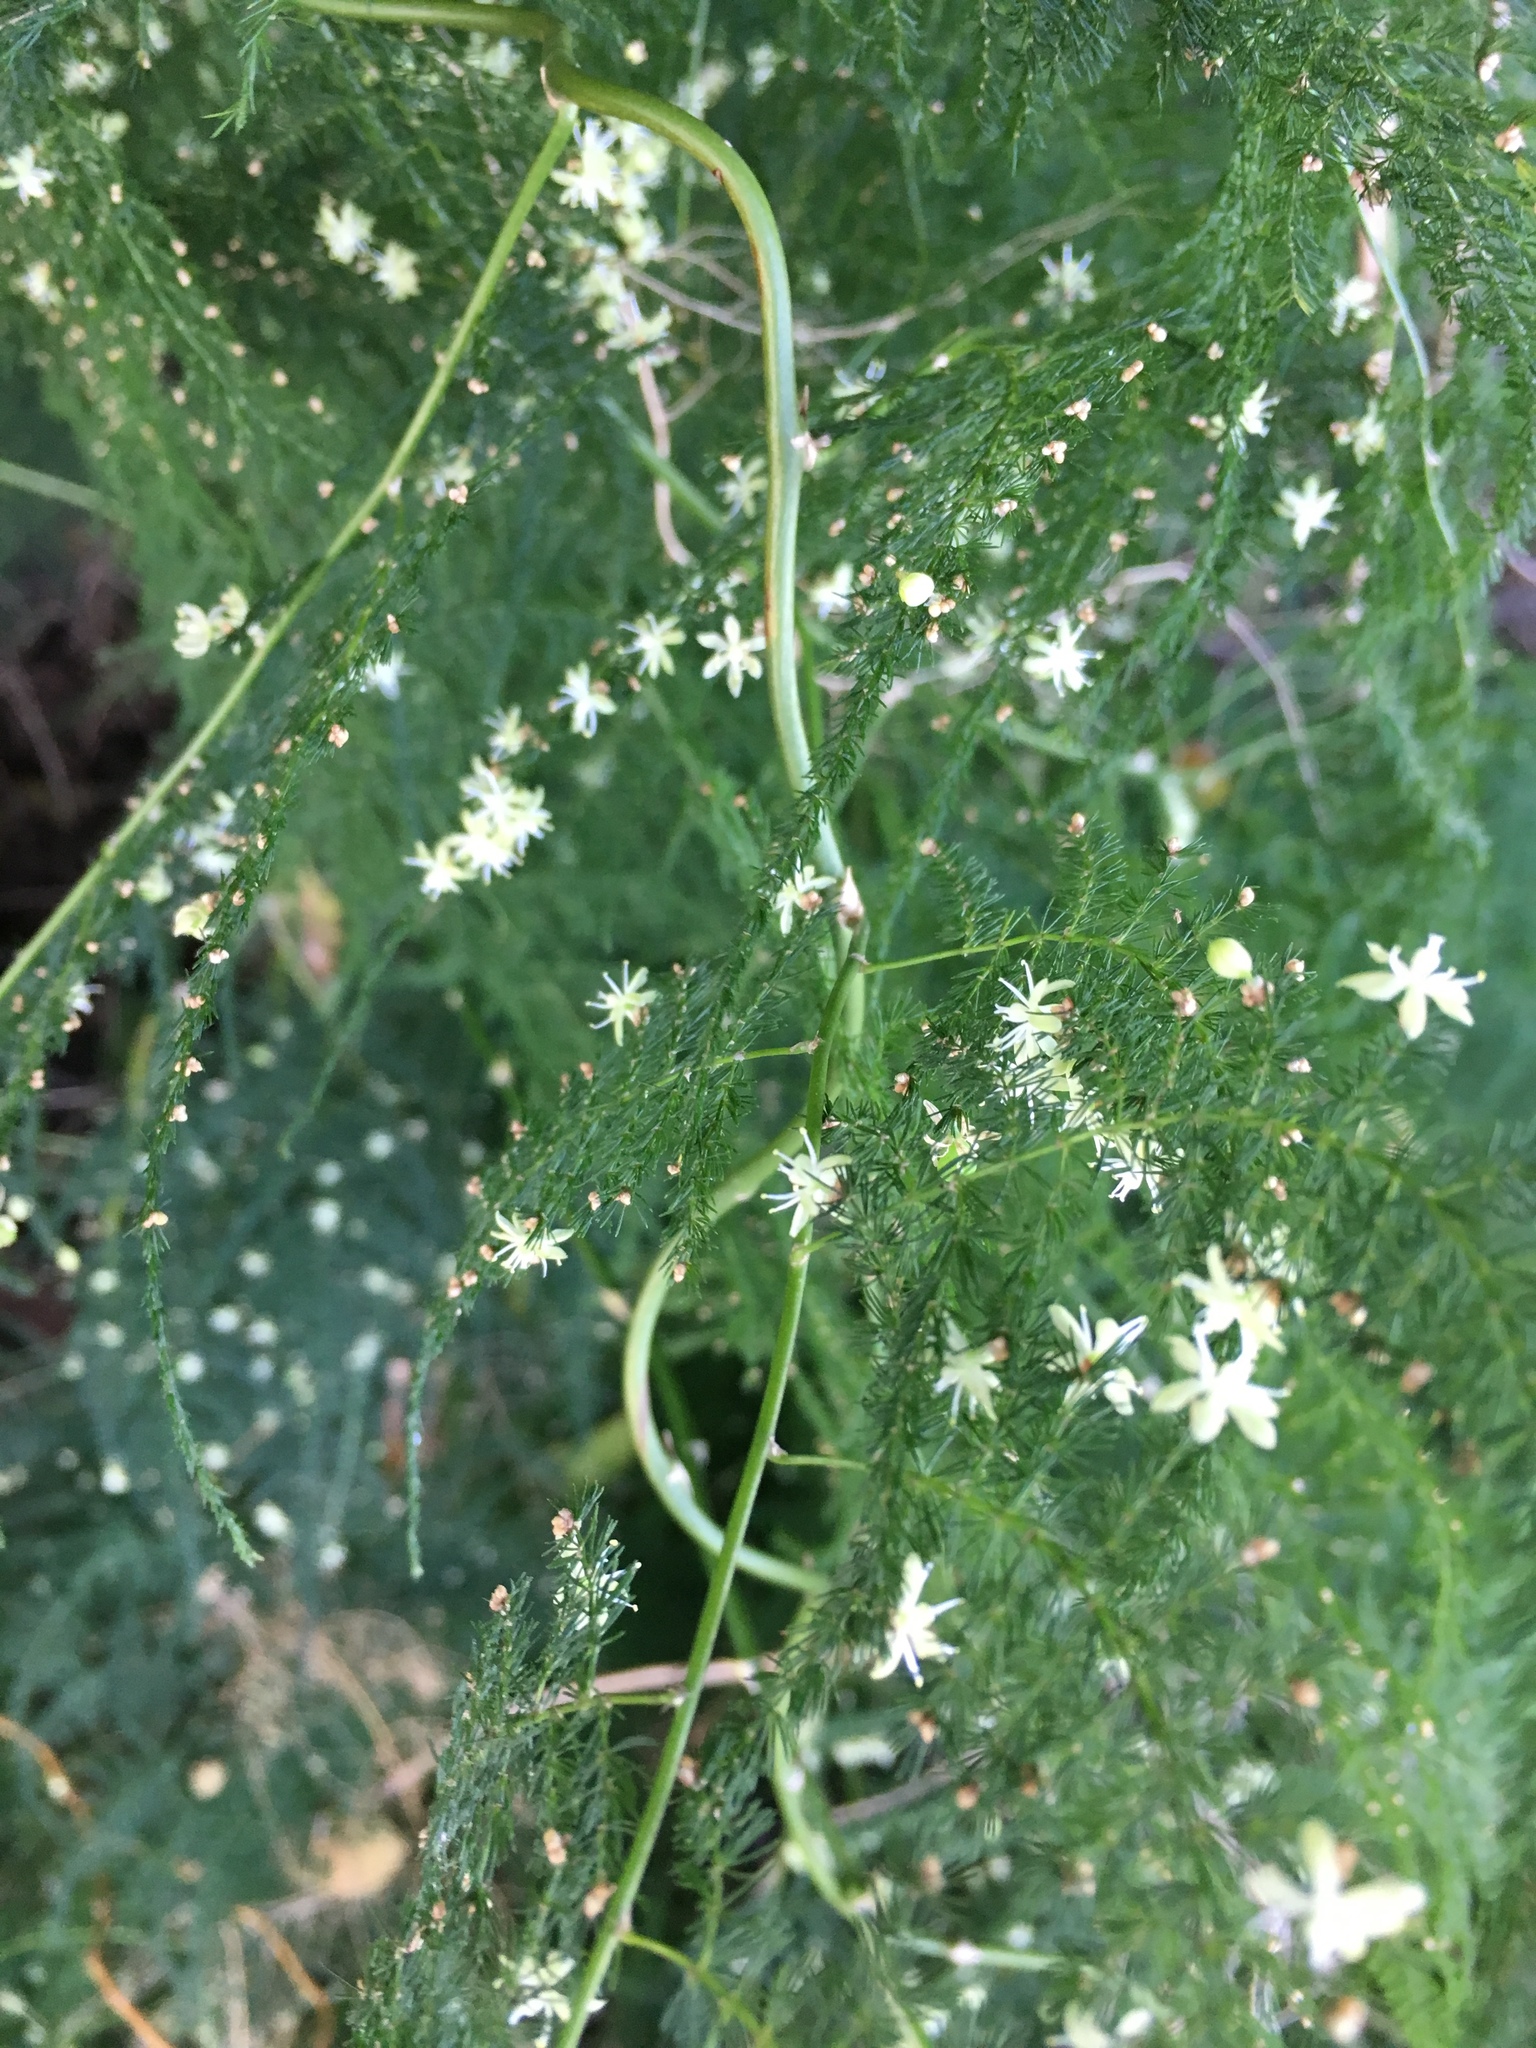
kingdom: Plantae
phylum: Tracheophyta
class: Liliopsida
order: Asparagales
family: Asparagaceae
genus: Asparagus
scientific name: Asparagus setaceus
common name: Common asparagus fern
